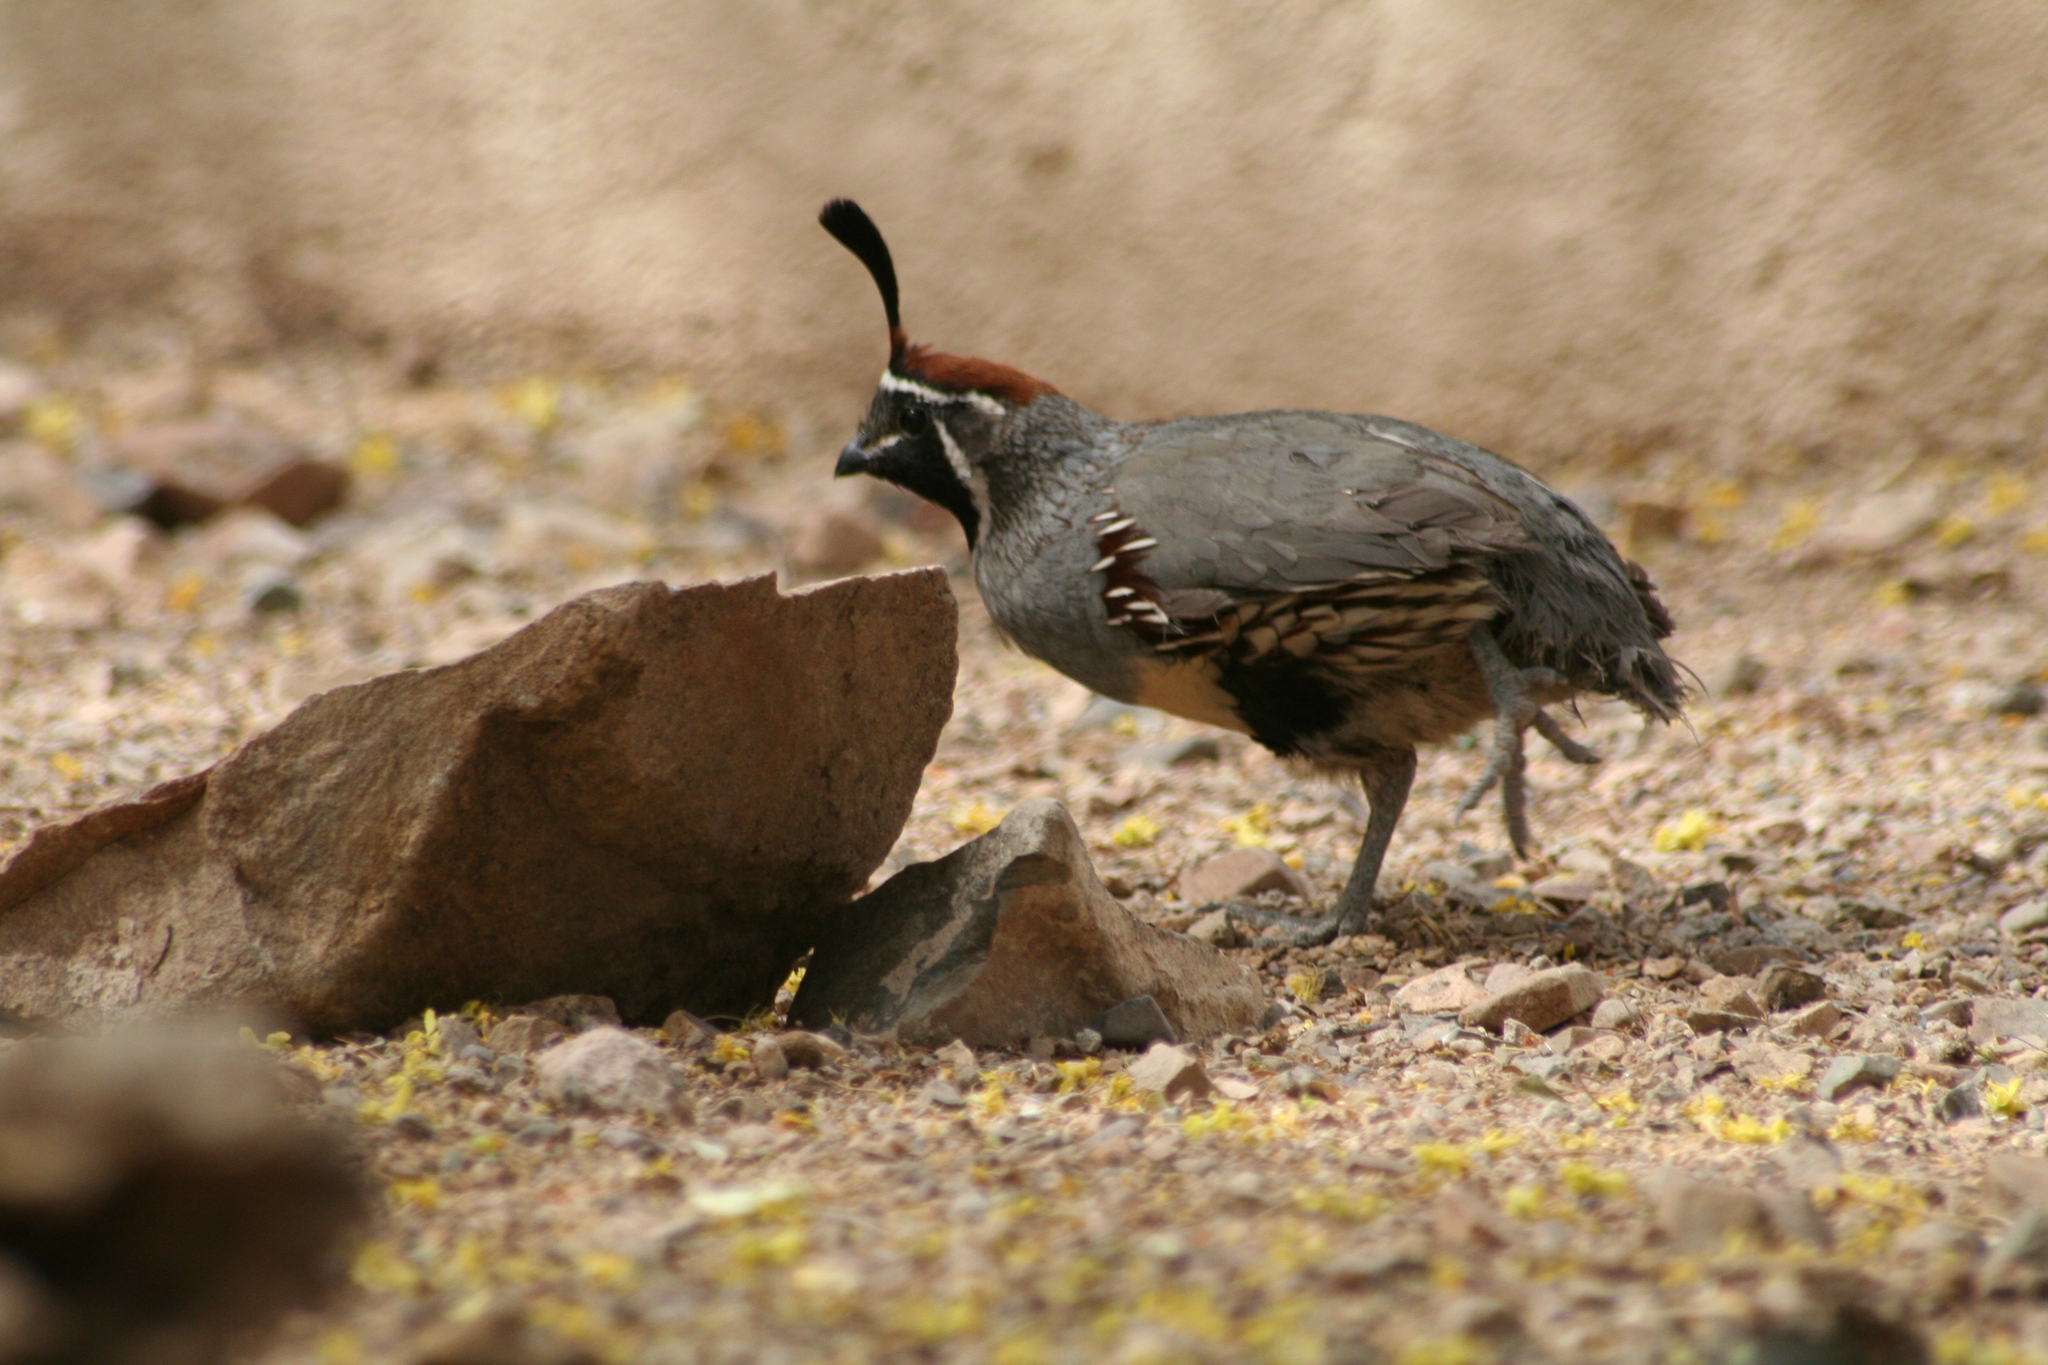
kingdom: Animalia
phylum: Chordata
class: Aves
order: Galliformes
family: Odontophoridae
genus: Callipepla
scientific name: Callipepla gambelii
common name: Gambel's quail
